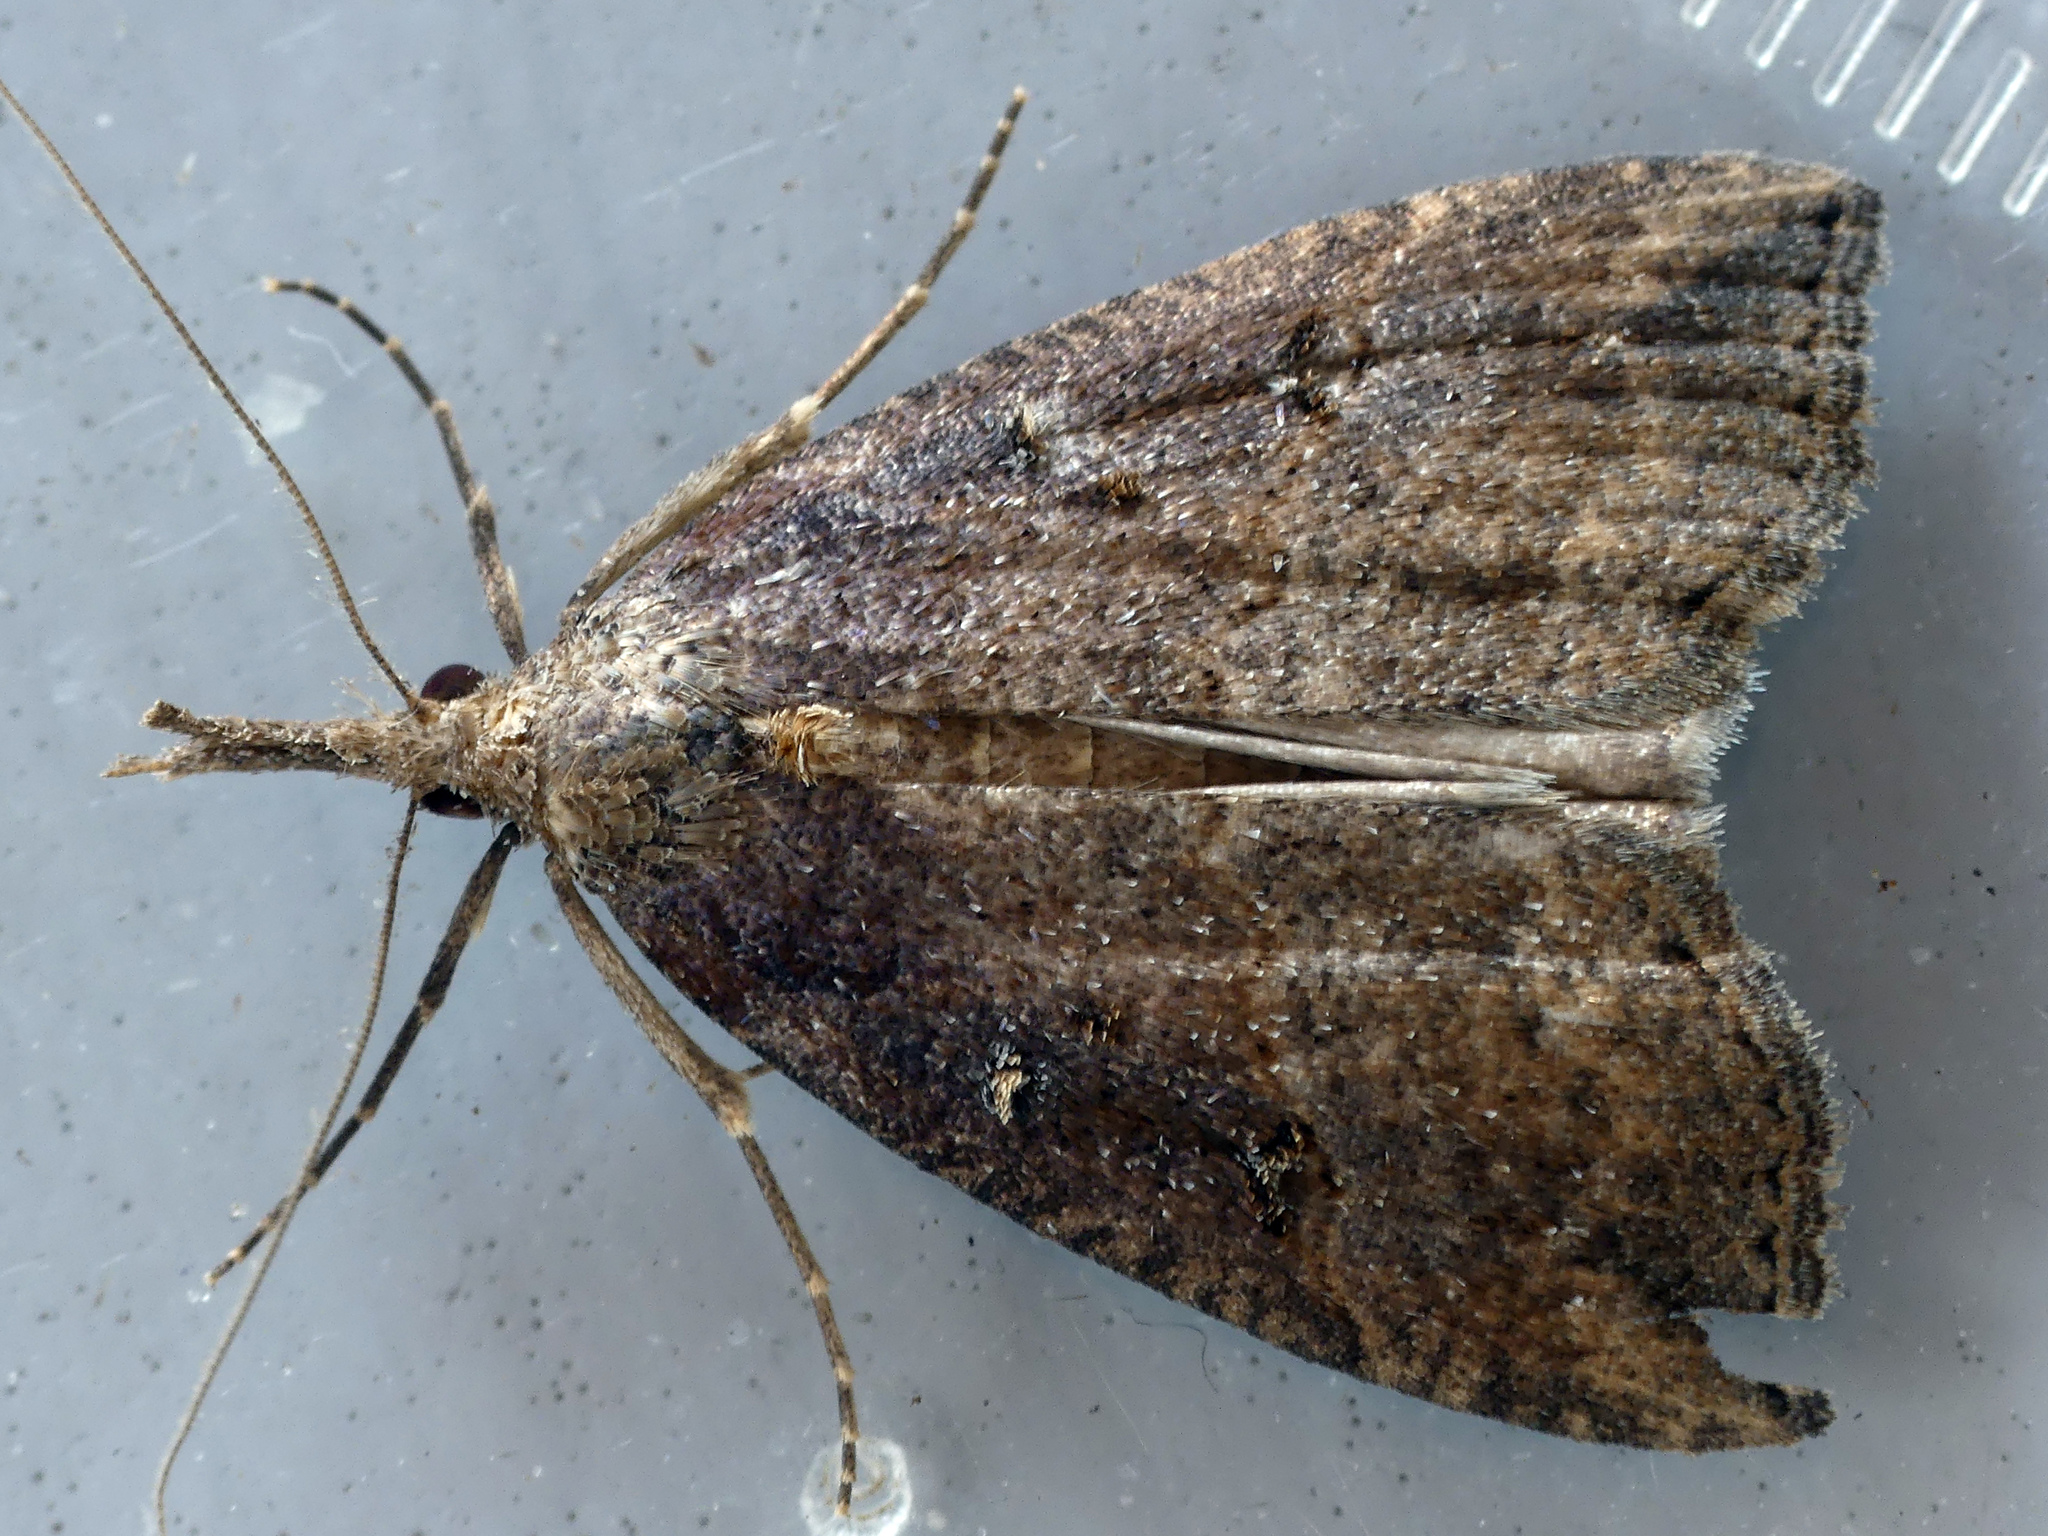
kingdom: Animalia
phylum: Arthropoda
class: Insecta
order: Lepidoptera
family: Erebidae
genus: Hypena
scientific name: Hypena rostralis
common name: Buttoned snout
